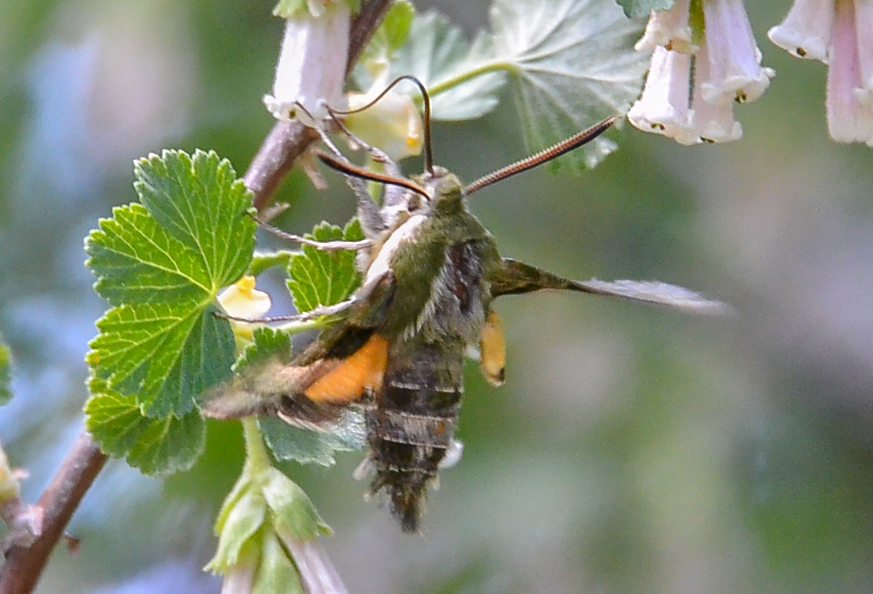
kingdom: Animalia
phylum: Arthropoda
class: Insecta
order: Lepidoptera
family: Sphingidae
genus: Proserpinus
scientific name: Proserpinus clarkiae
